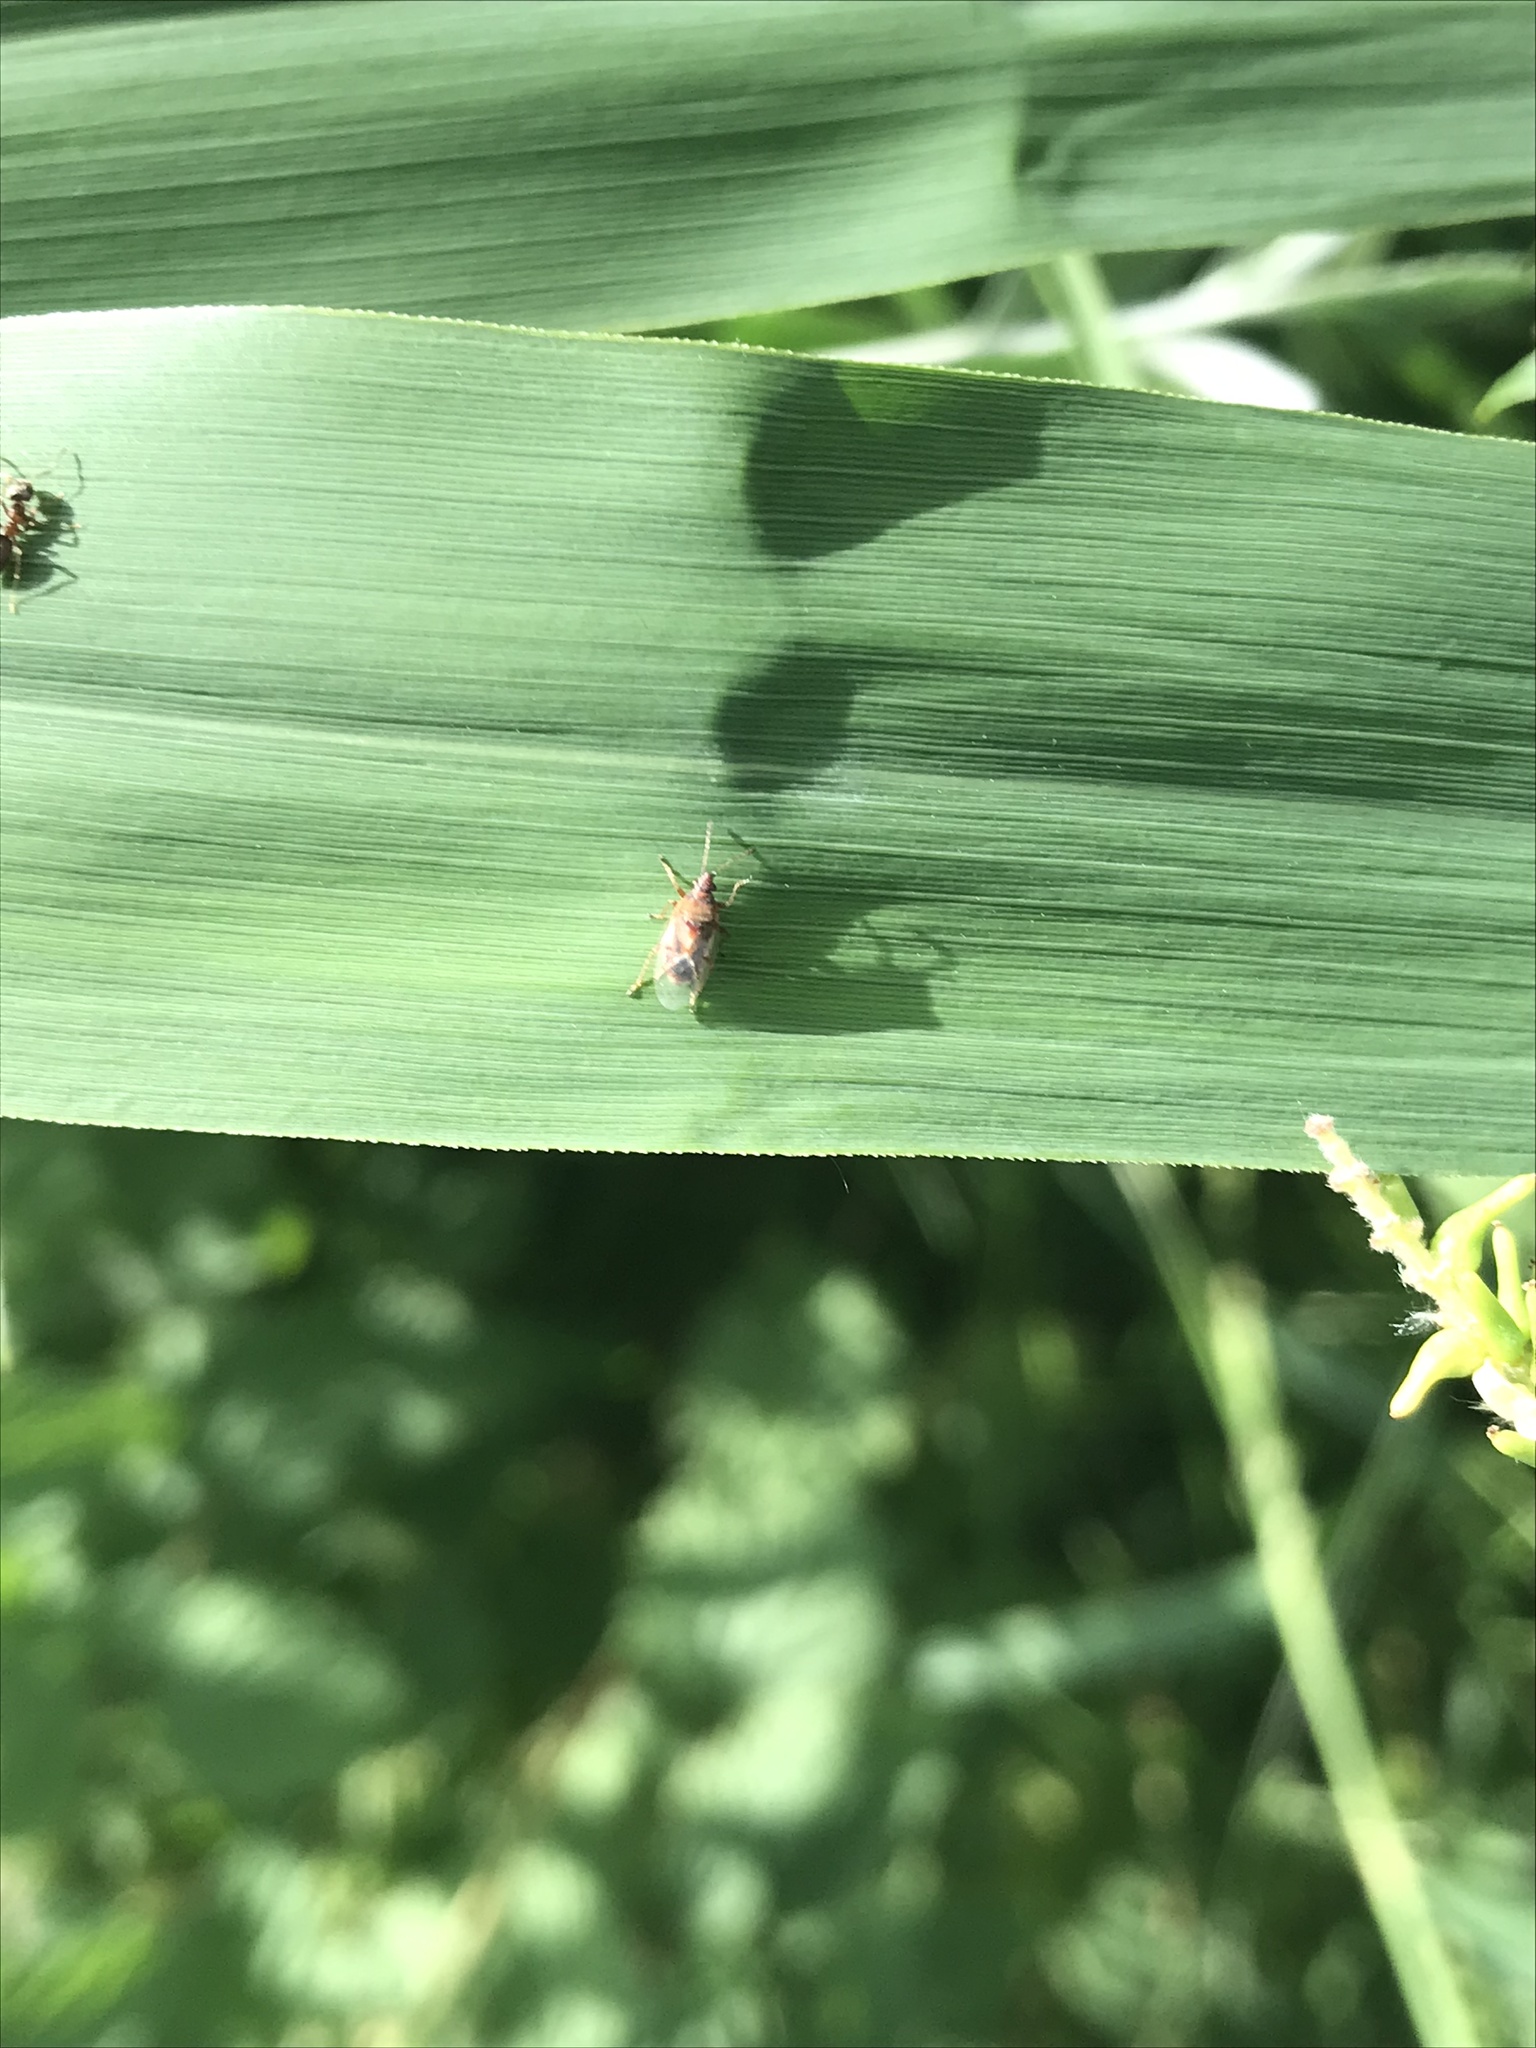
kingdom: Animalia
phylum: Arthropoda
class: Insecta
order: Hemiptera
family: Lygaeidae
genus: Kleidocerys
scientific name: Kleidocerys resedae
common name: Birch catkin bug
